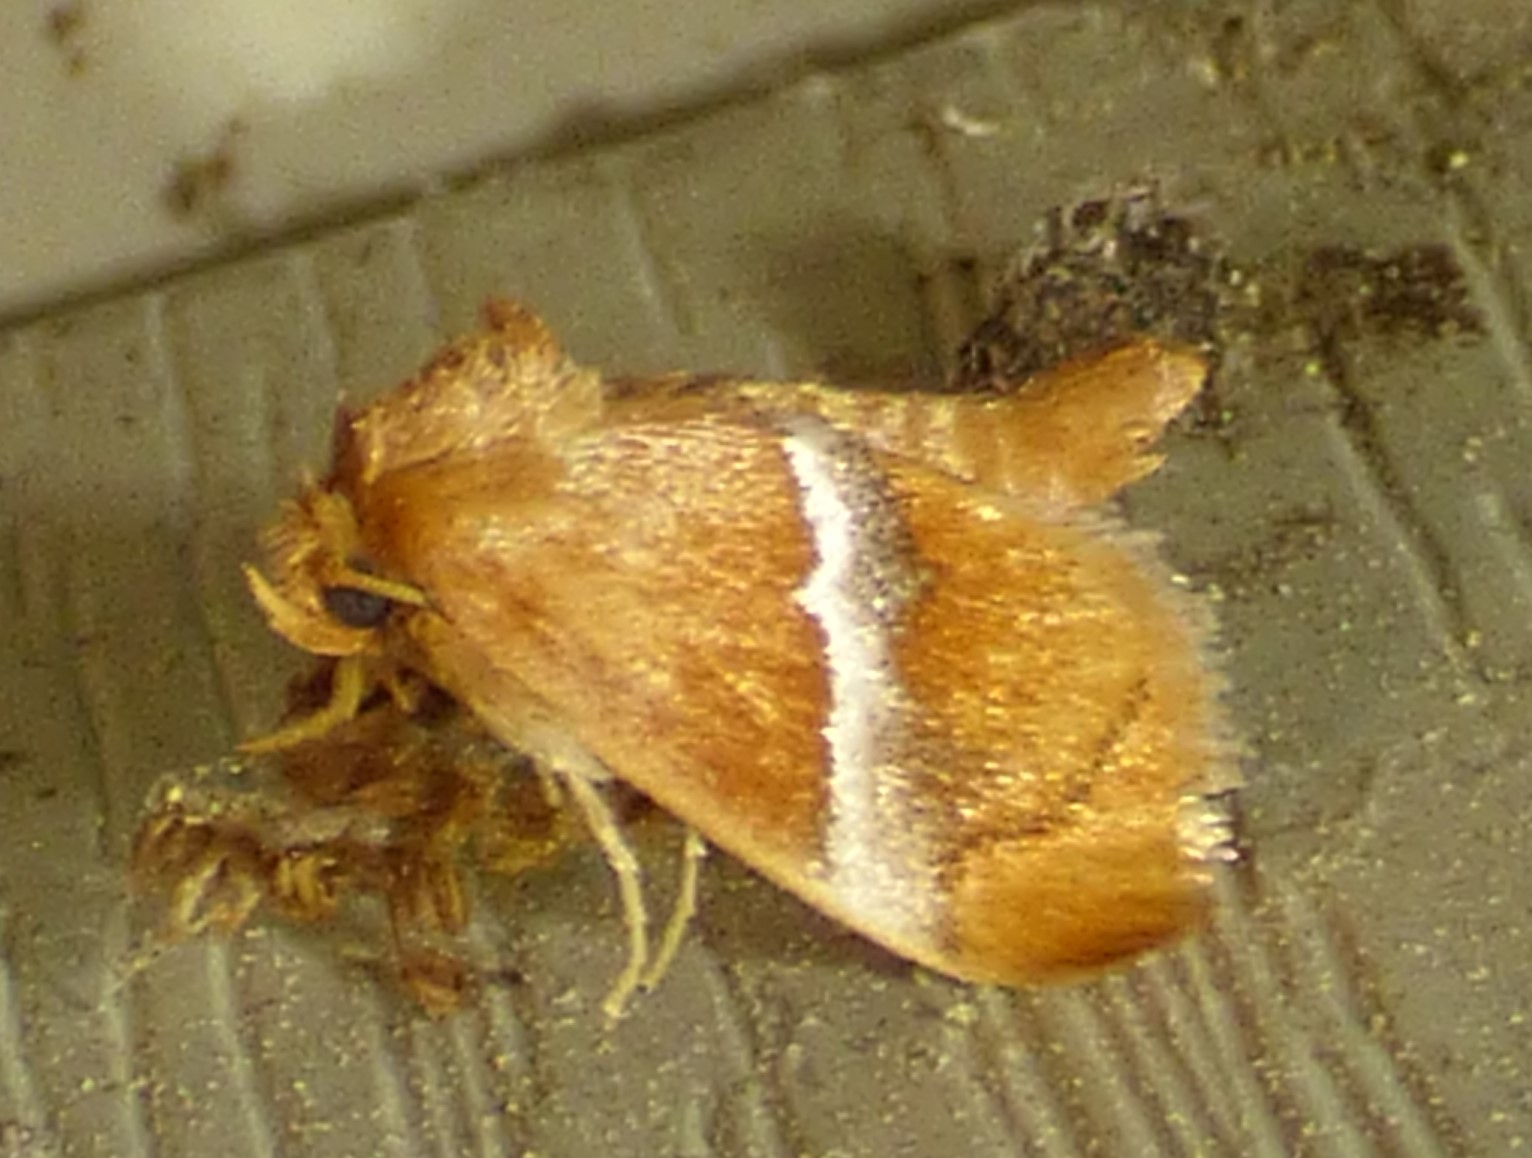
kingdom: Animalia
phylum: Arthropoda
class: Insecta
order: Lepidoptera
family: Limacodidae
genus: Lithacodes
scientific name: Lithacodes fasciola
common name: Yellow-shouldered slug moth
